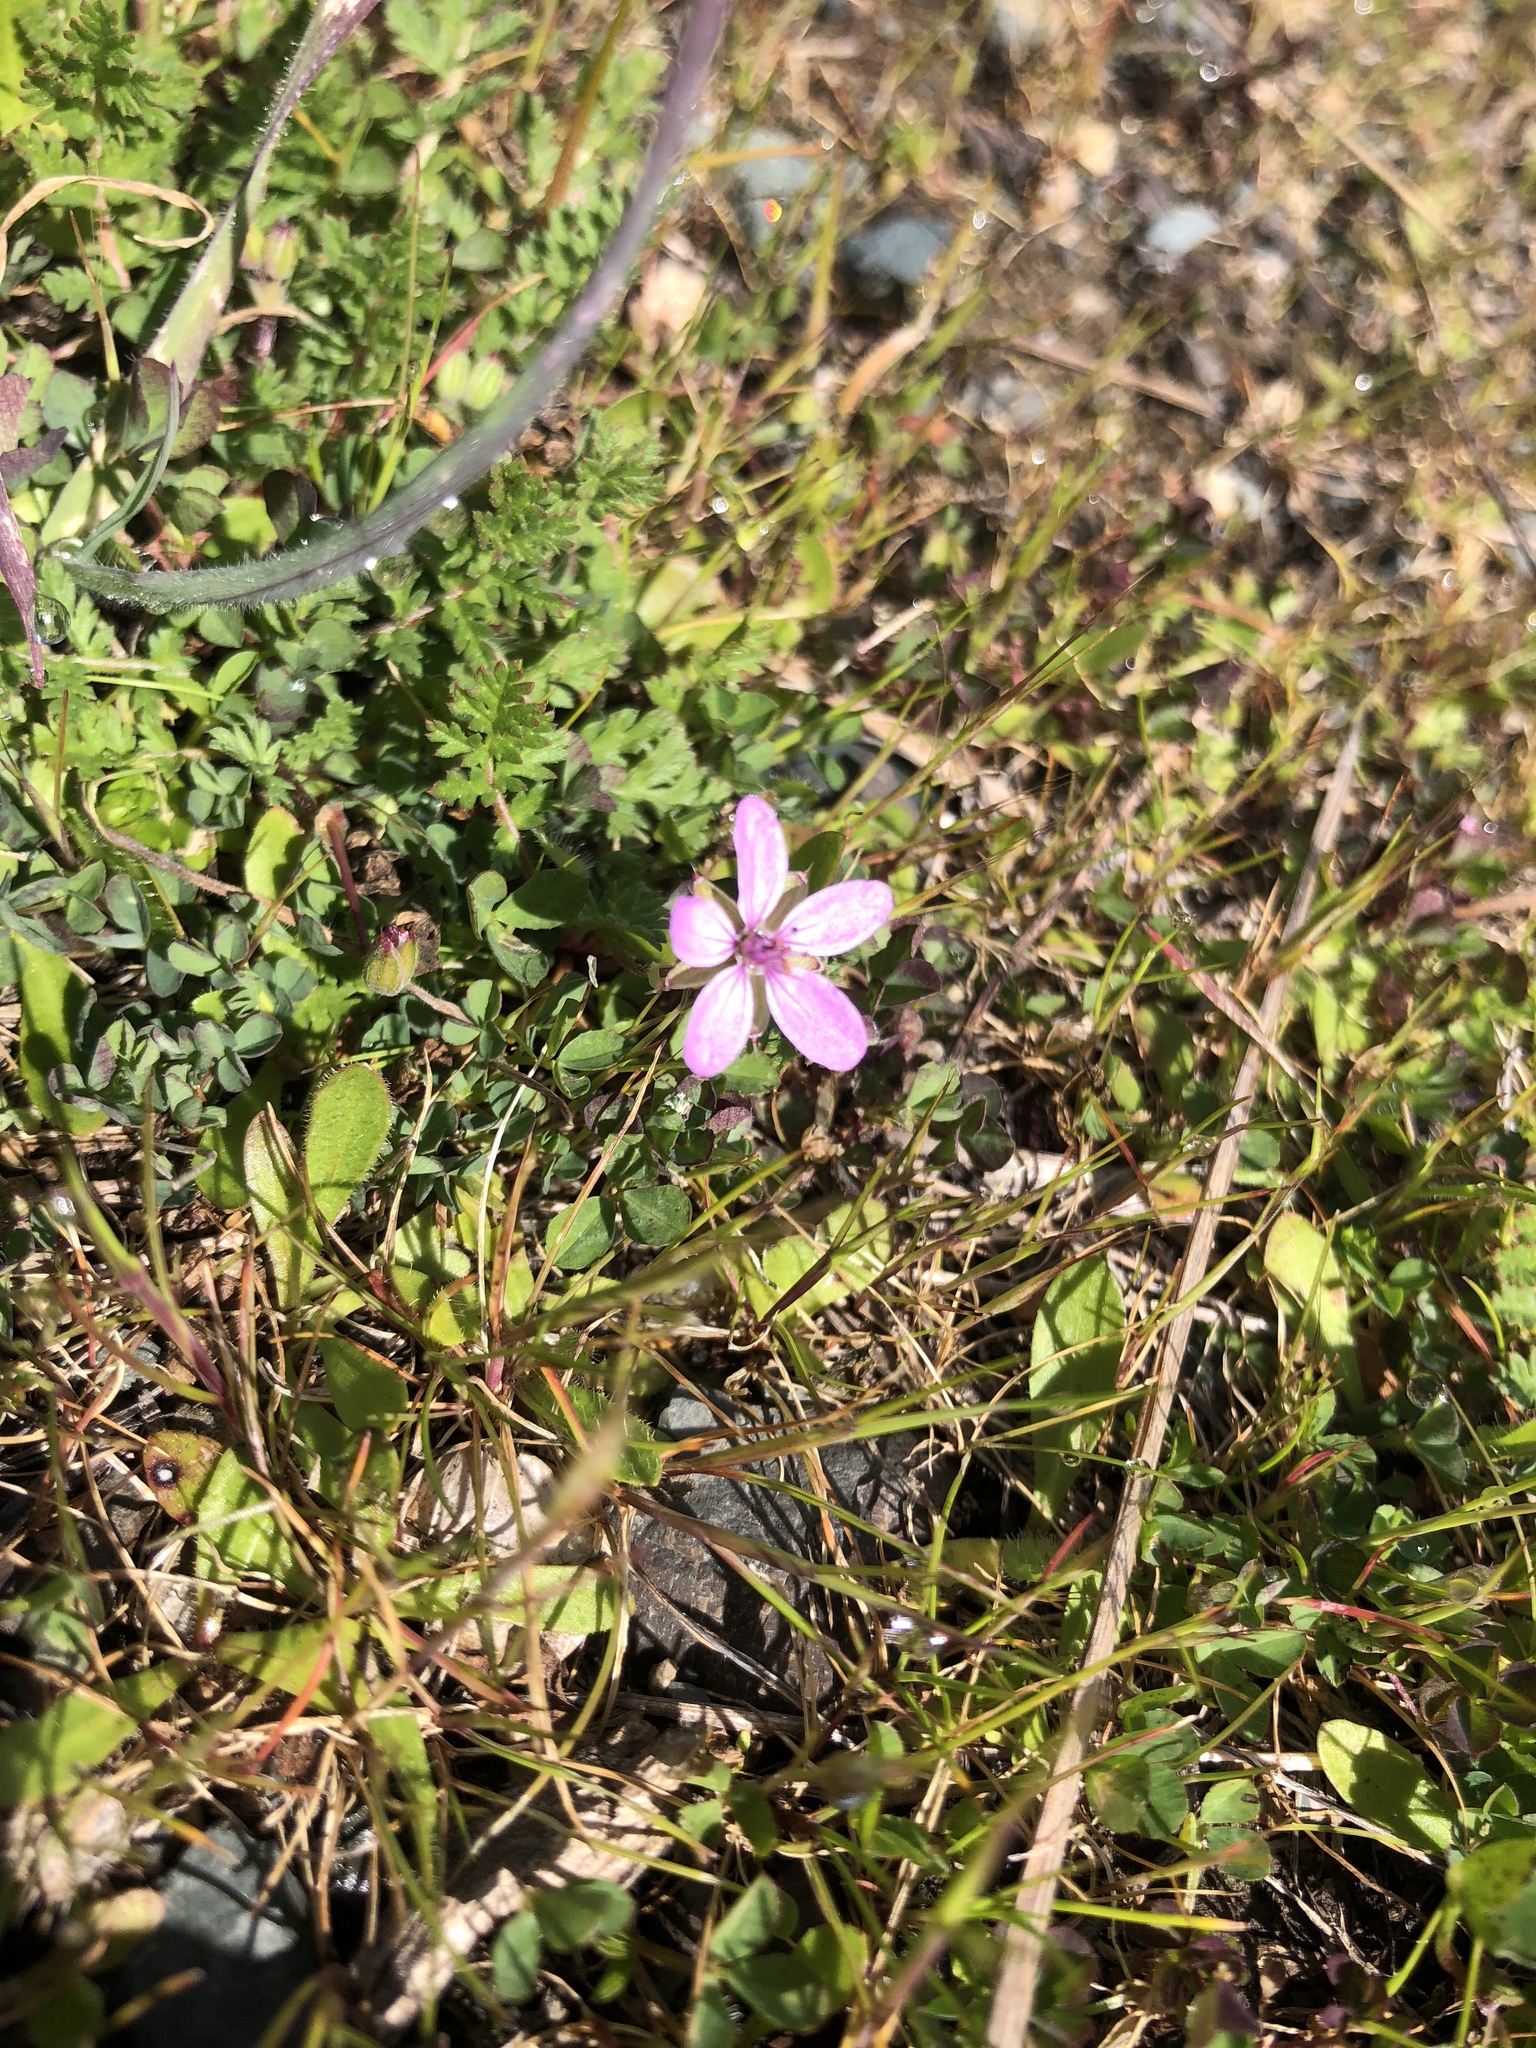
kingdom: Plantae
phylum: Tracheophyta
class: Magnoliopsida
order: Geraniales
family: Geraniaceae
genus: Erodium
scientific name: Erodium cicutarium
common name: Common stork's-bill
